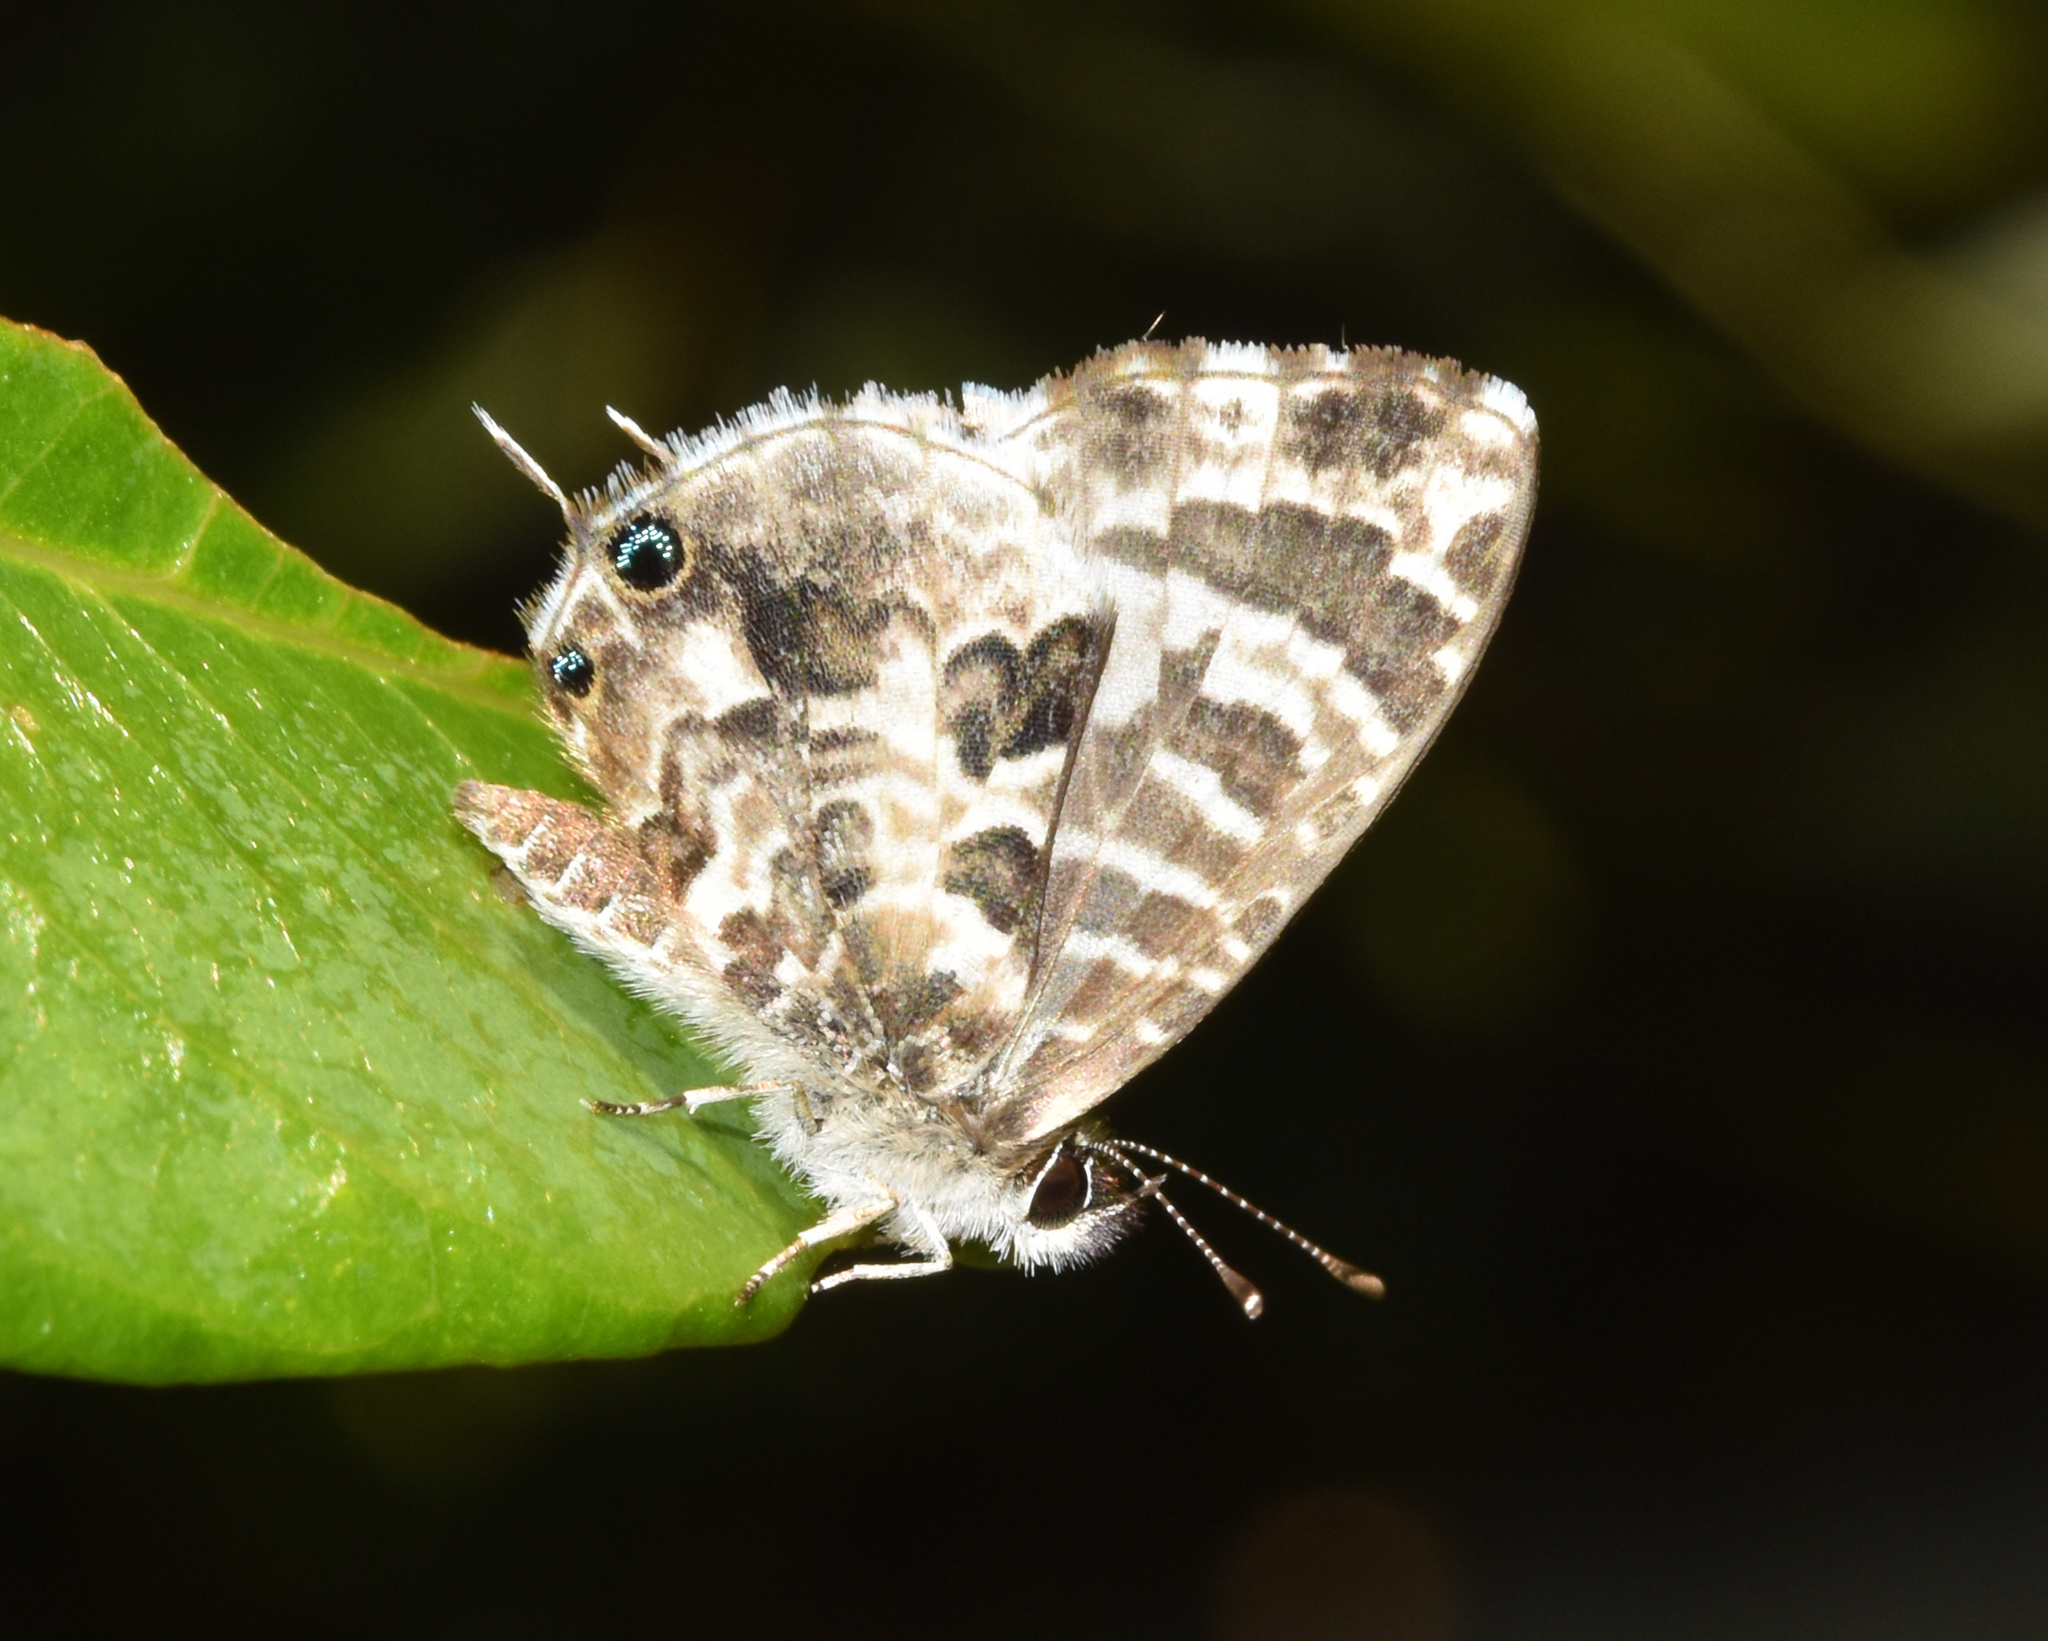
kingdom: Animalia
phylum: Arthropoda
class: Insecta
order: Lepidoptera
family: Lycaenidae
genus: Cacyreus
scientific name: Cacyreus lingeus
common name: Bush bronze
